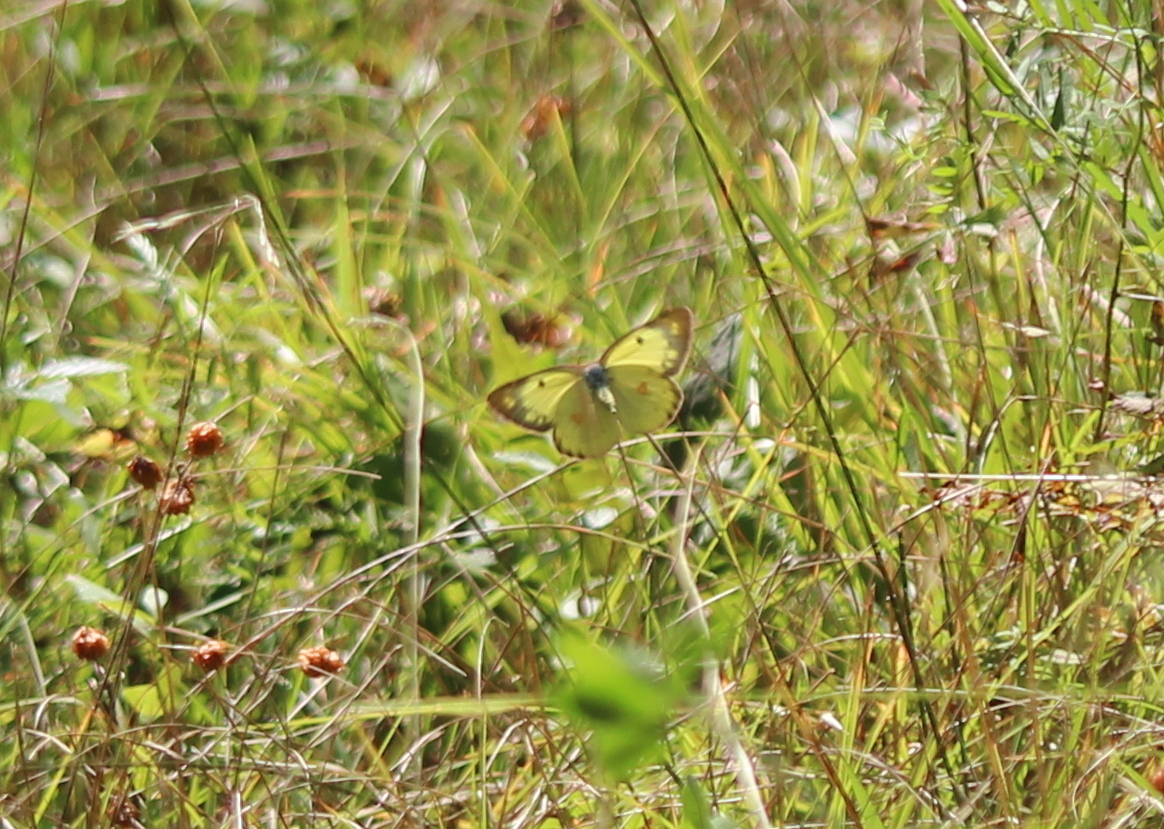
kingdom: Animalia
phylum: Arthropoda
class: Insecta
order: Lepidoptera
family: Pieridae
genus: Colias
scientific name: Colias philodice
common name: Clouded sulphur
